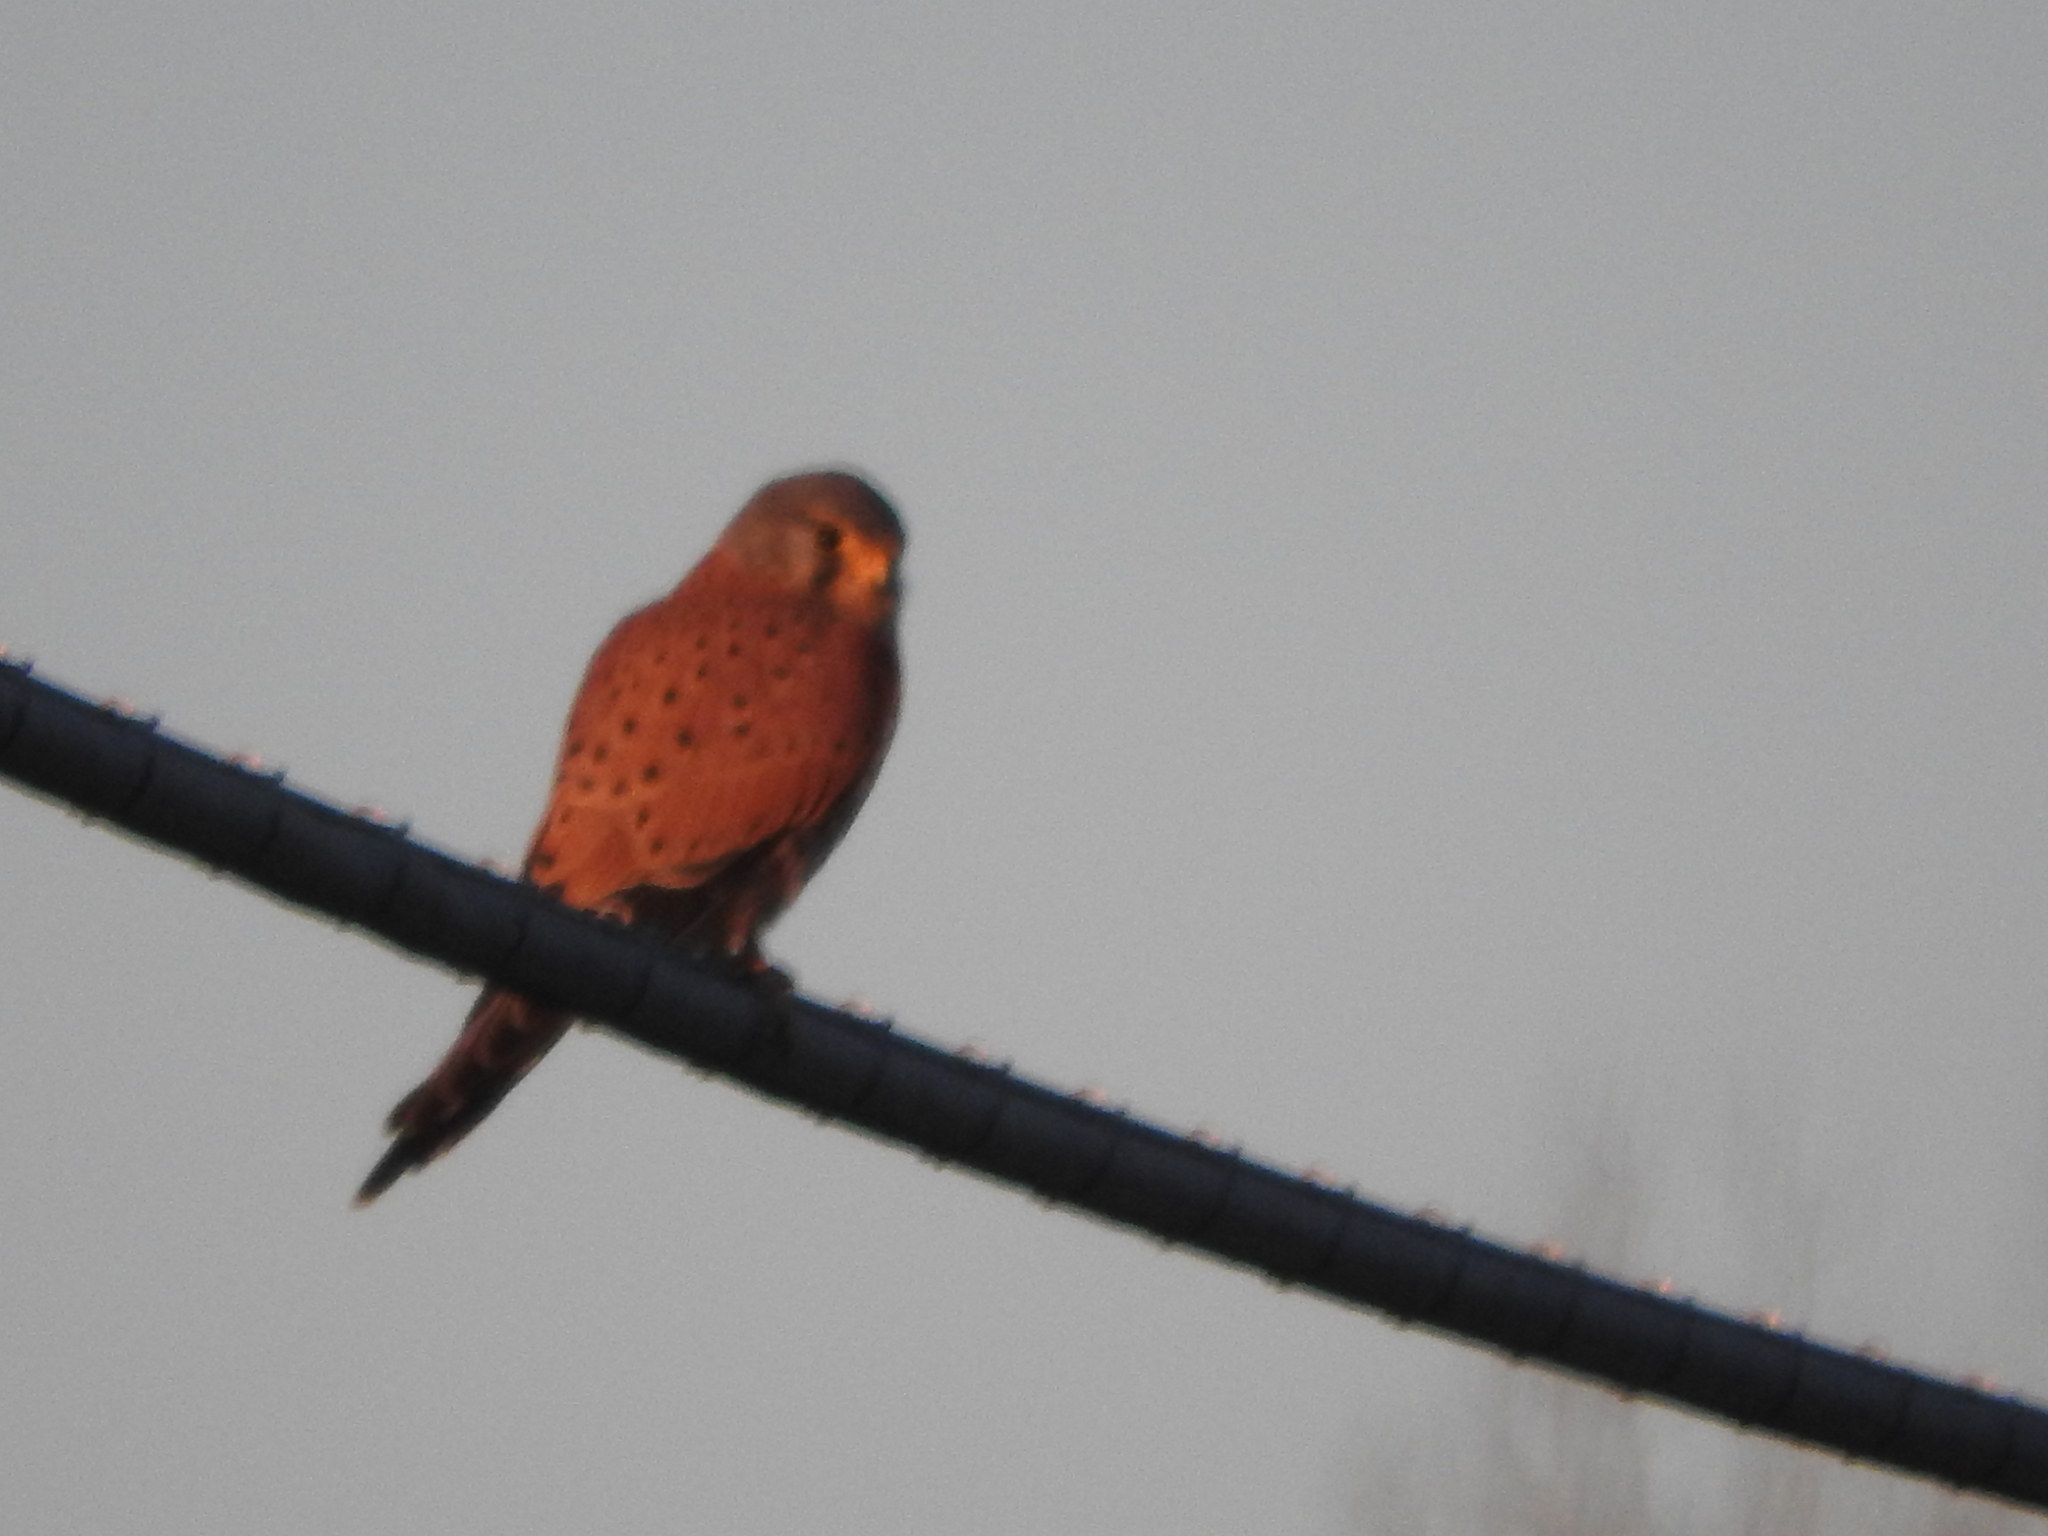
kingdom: Animalia
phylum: Chordata
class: Aves
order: Falconiformes
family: Falconidae
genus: Falco
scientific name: Falco tinnunculus
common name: Common kestrel
